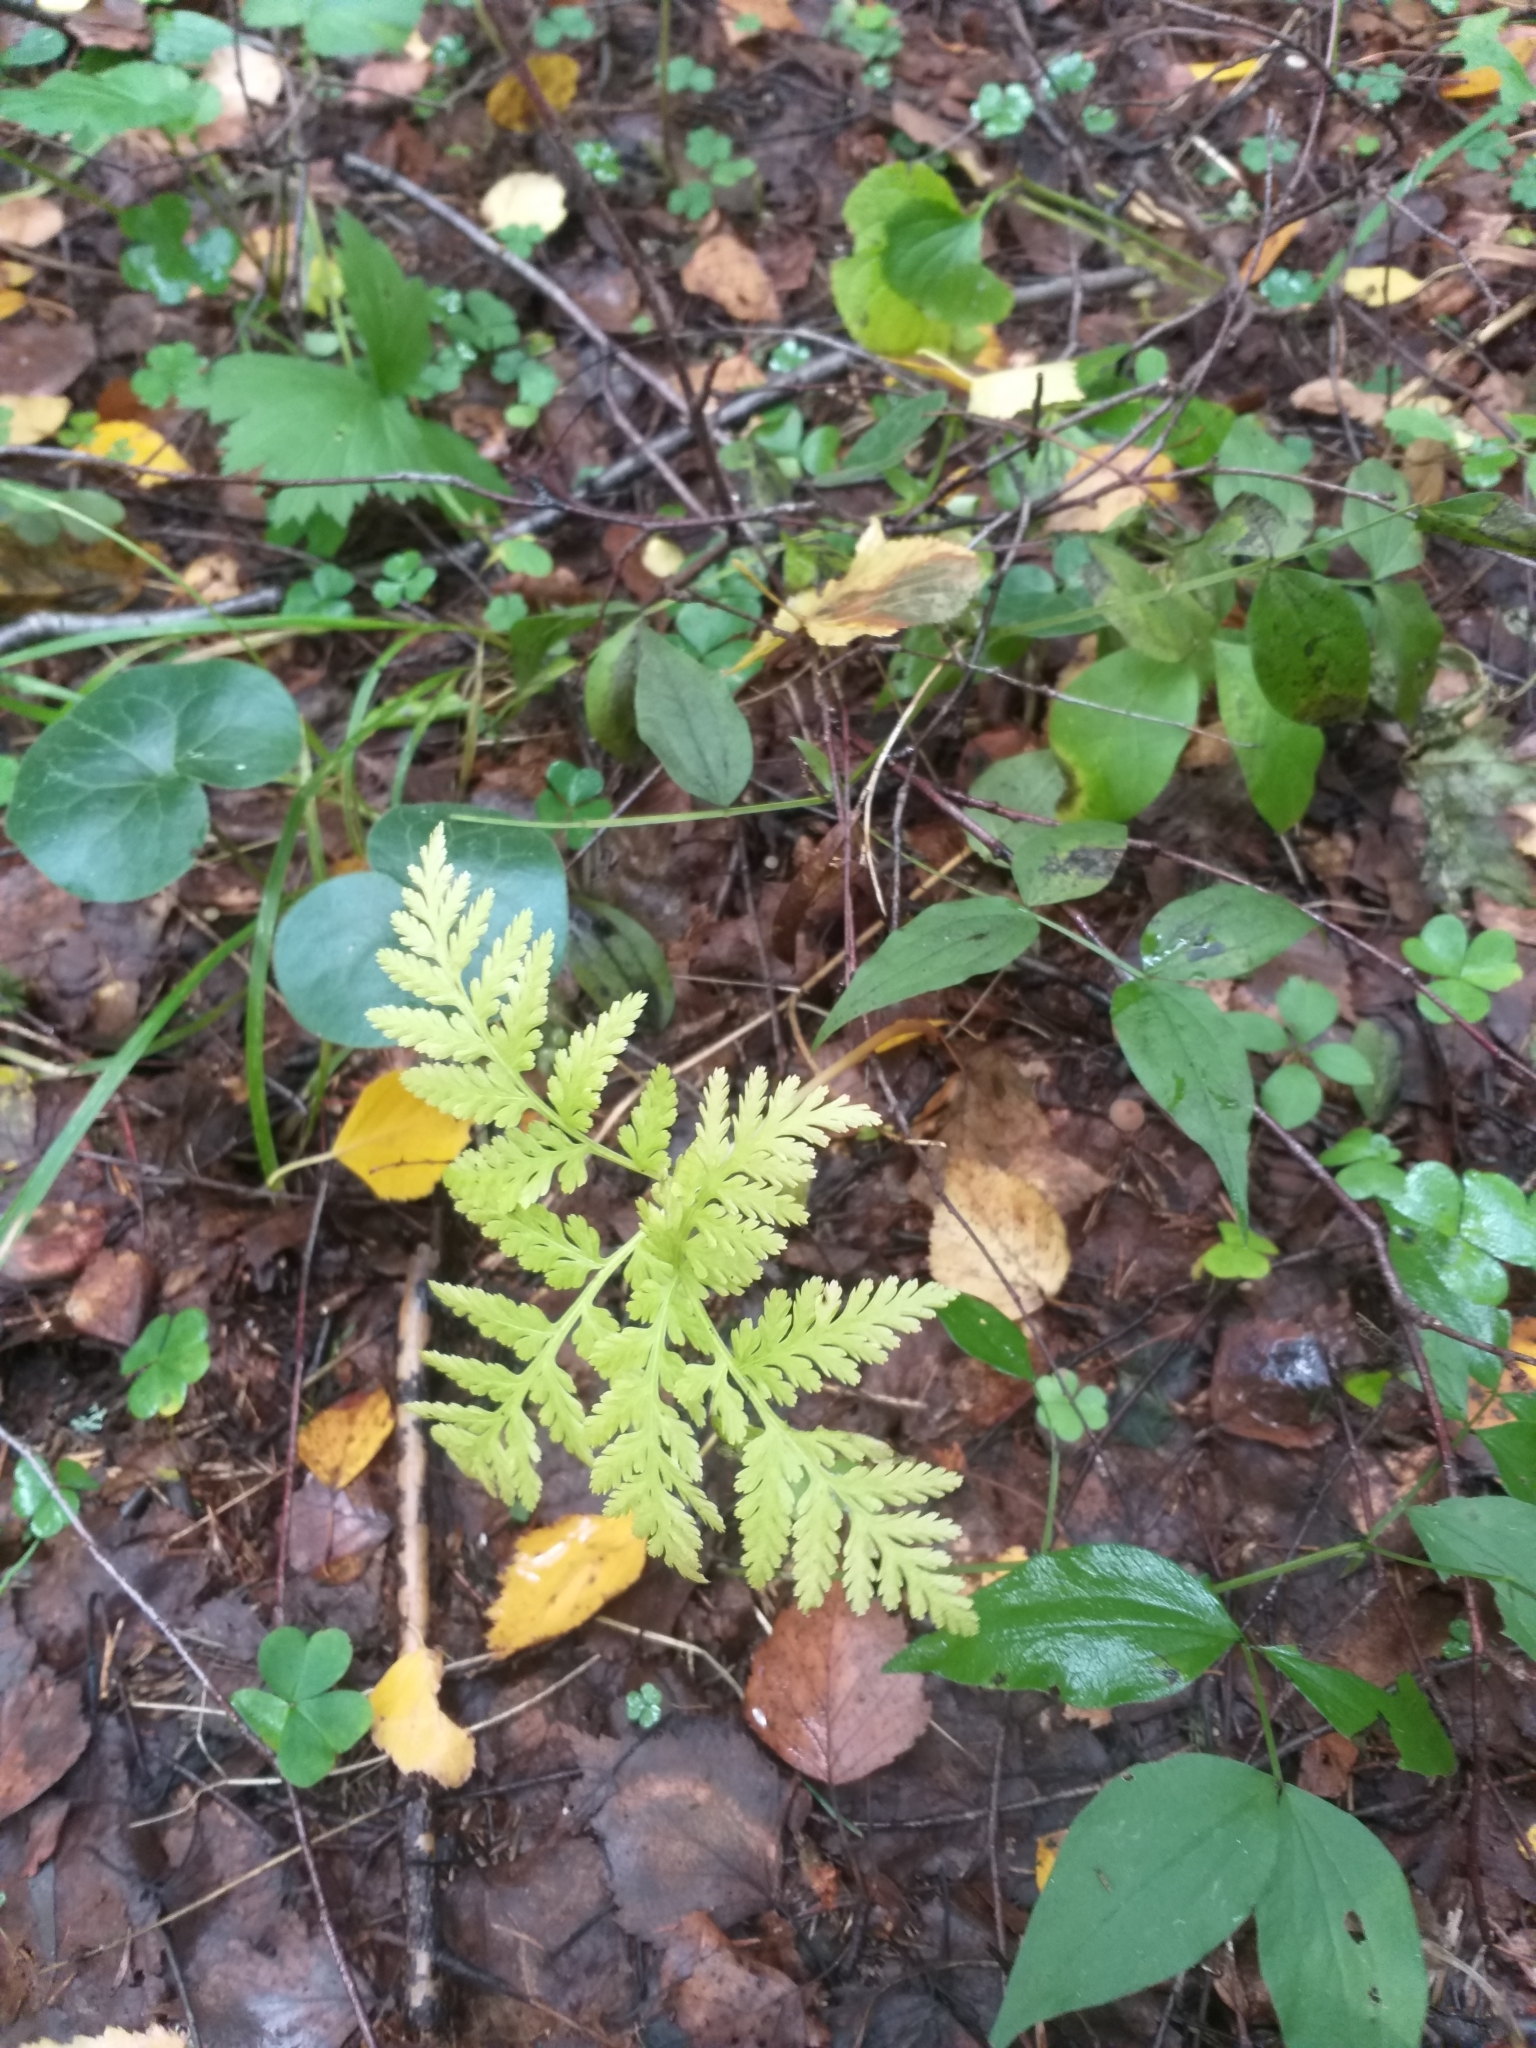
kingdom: Plantae
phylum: Tracheophyta
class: Polypodiopsida
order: Ophioglossales
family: Ophioglossaceae
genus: Botrypus
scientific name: Botrypus virginianus
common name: Common grapefern
